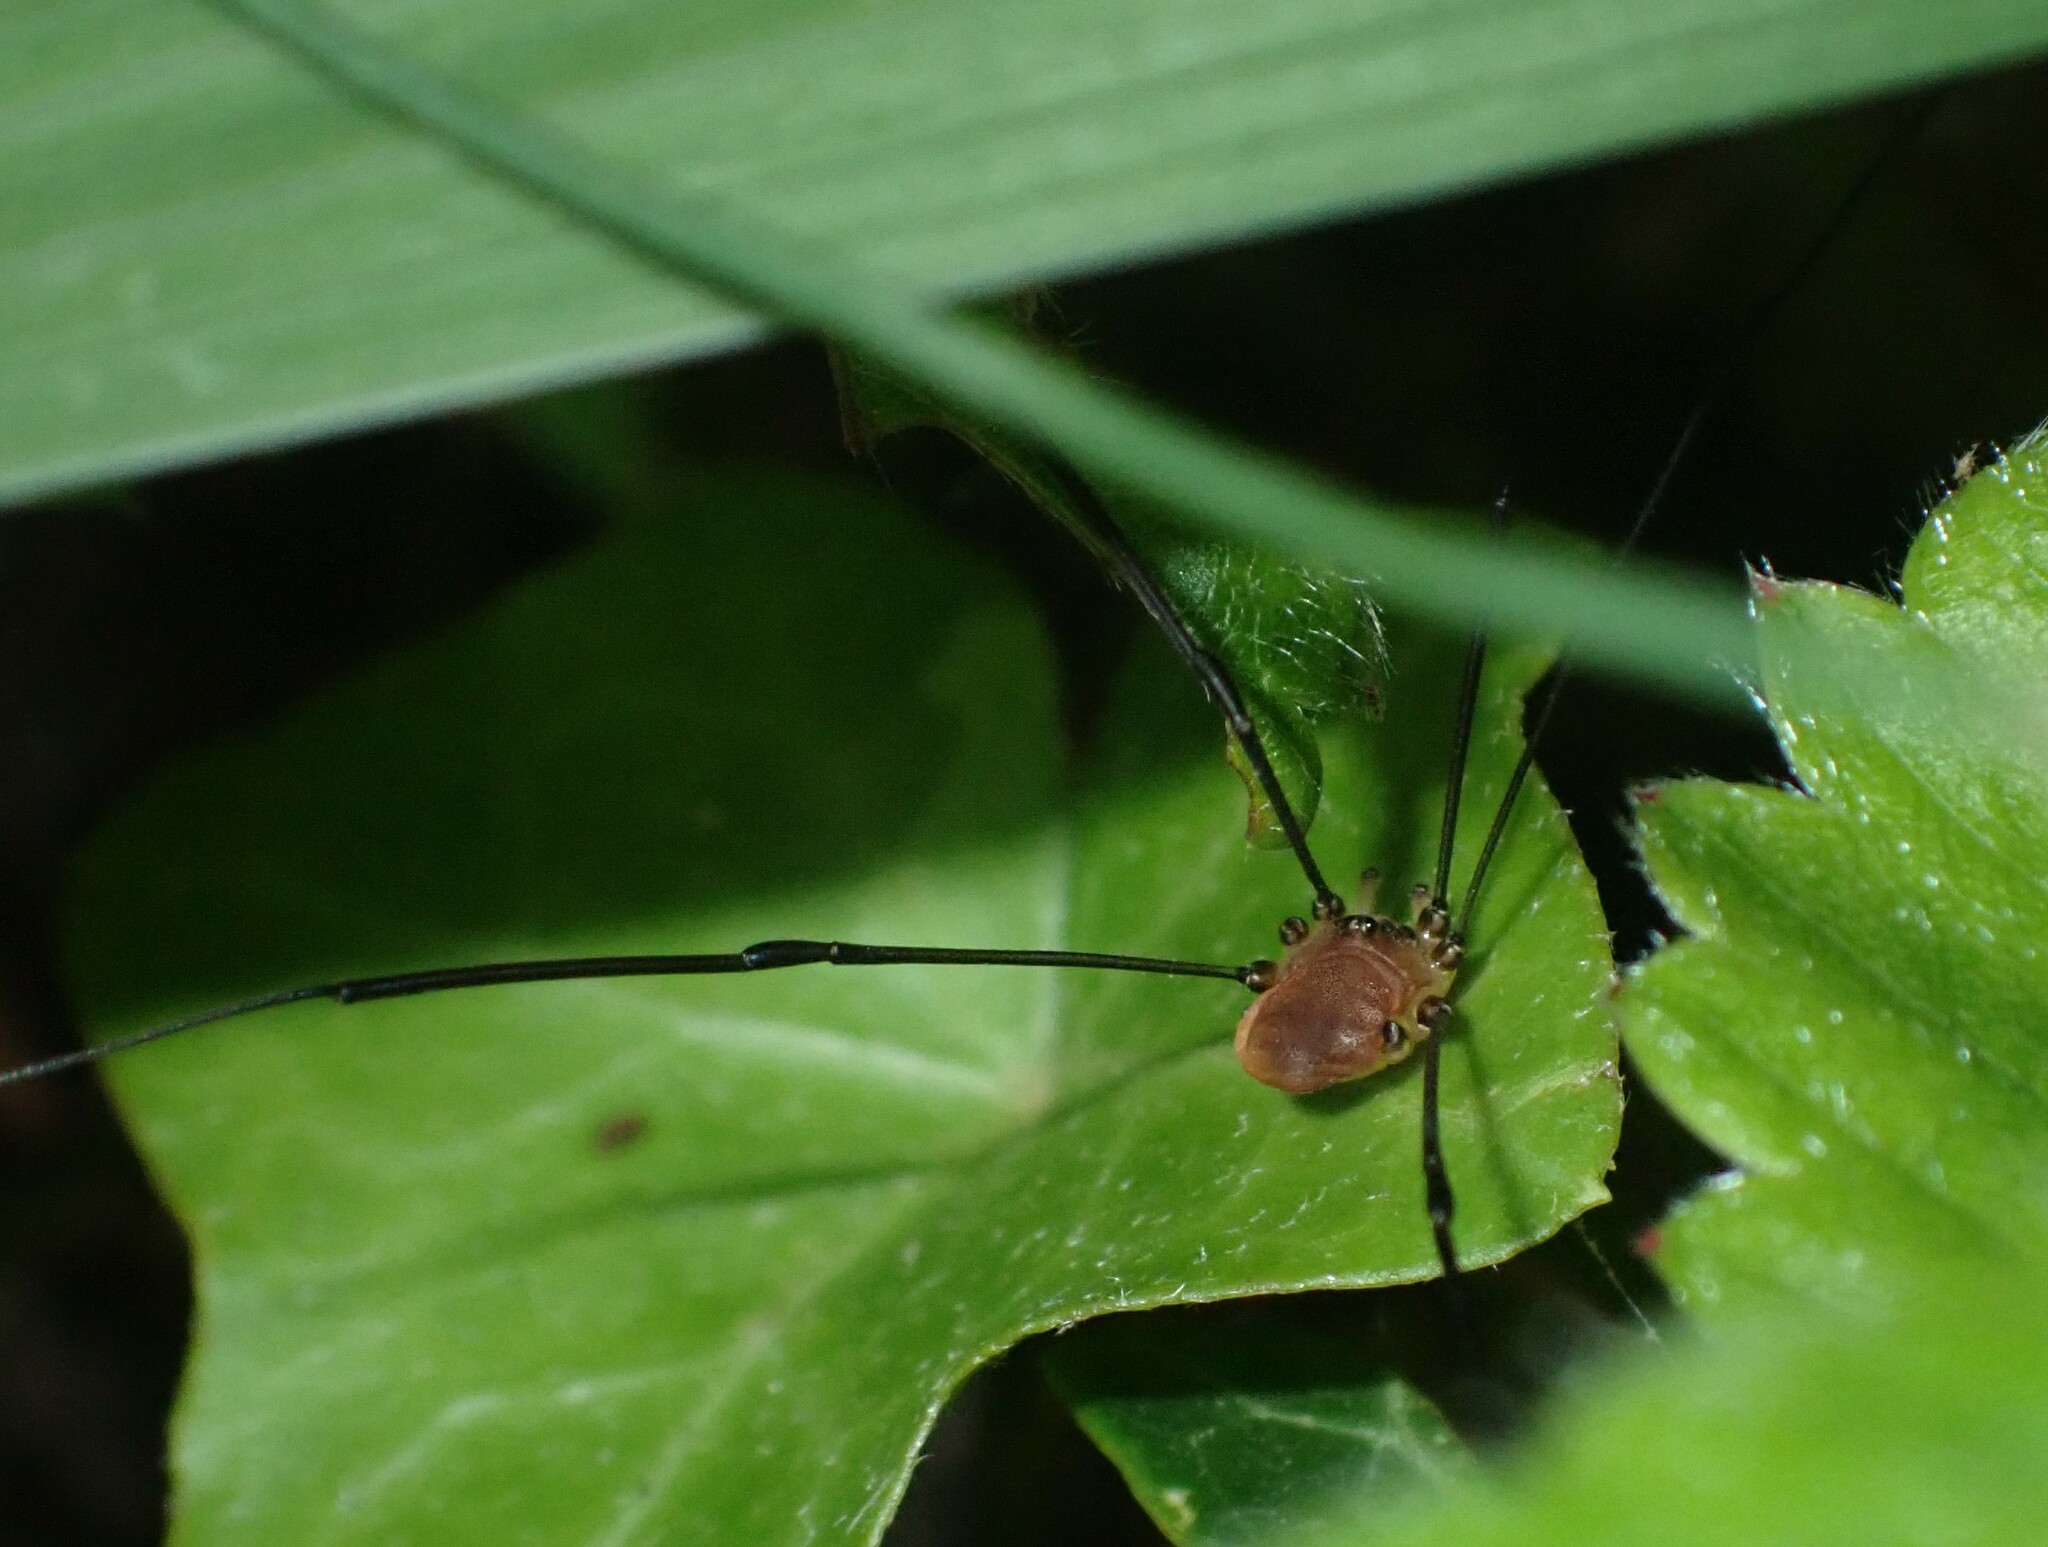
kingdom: Animalia
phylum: Arthropoda
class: Arachnida
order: Opiliones
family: Sclerosomatidae
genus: Leiobunum
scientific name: Leiobunum blackwalli
